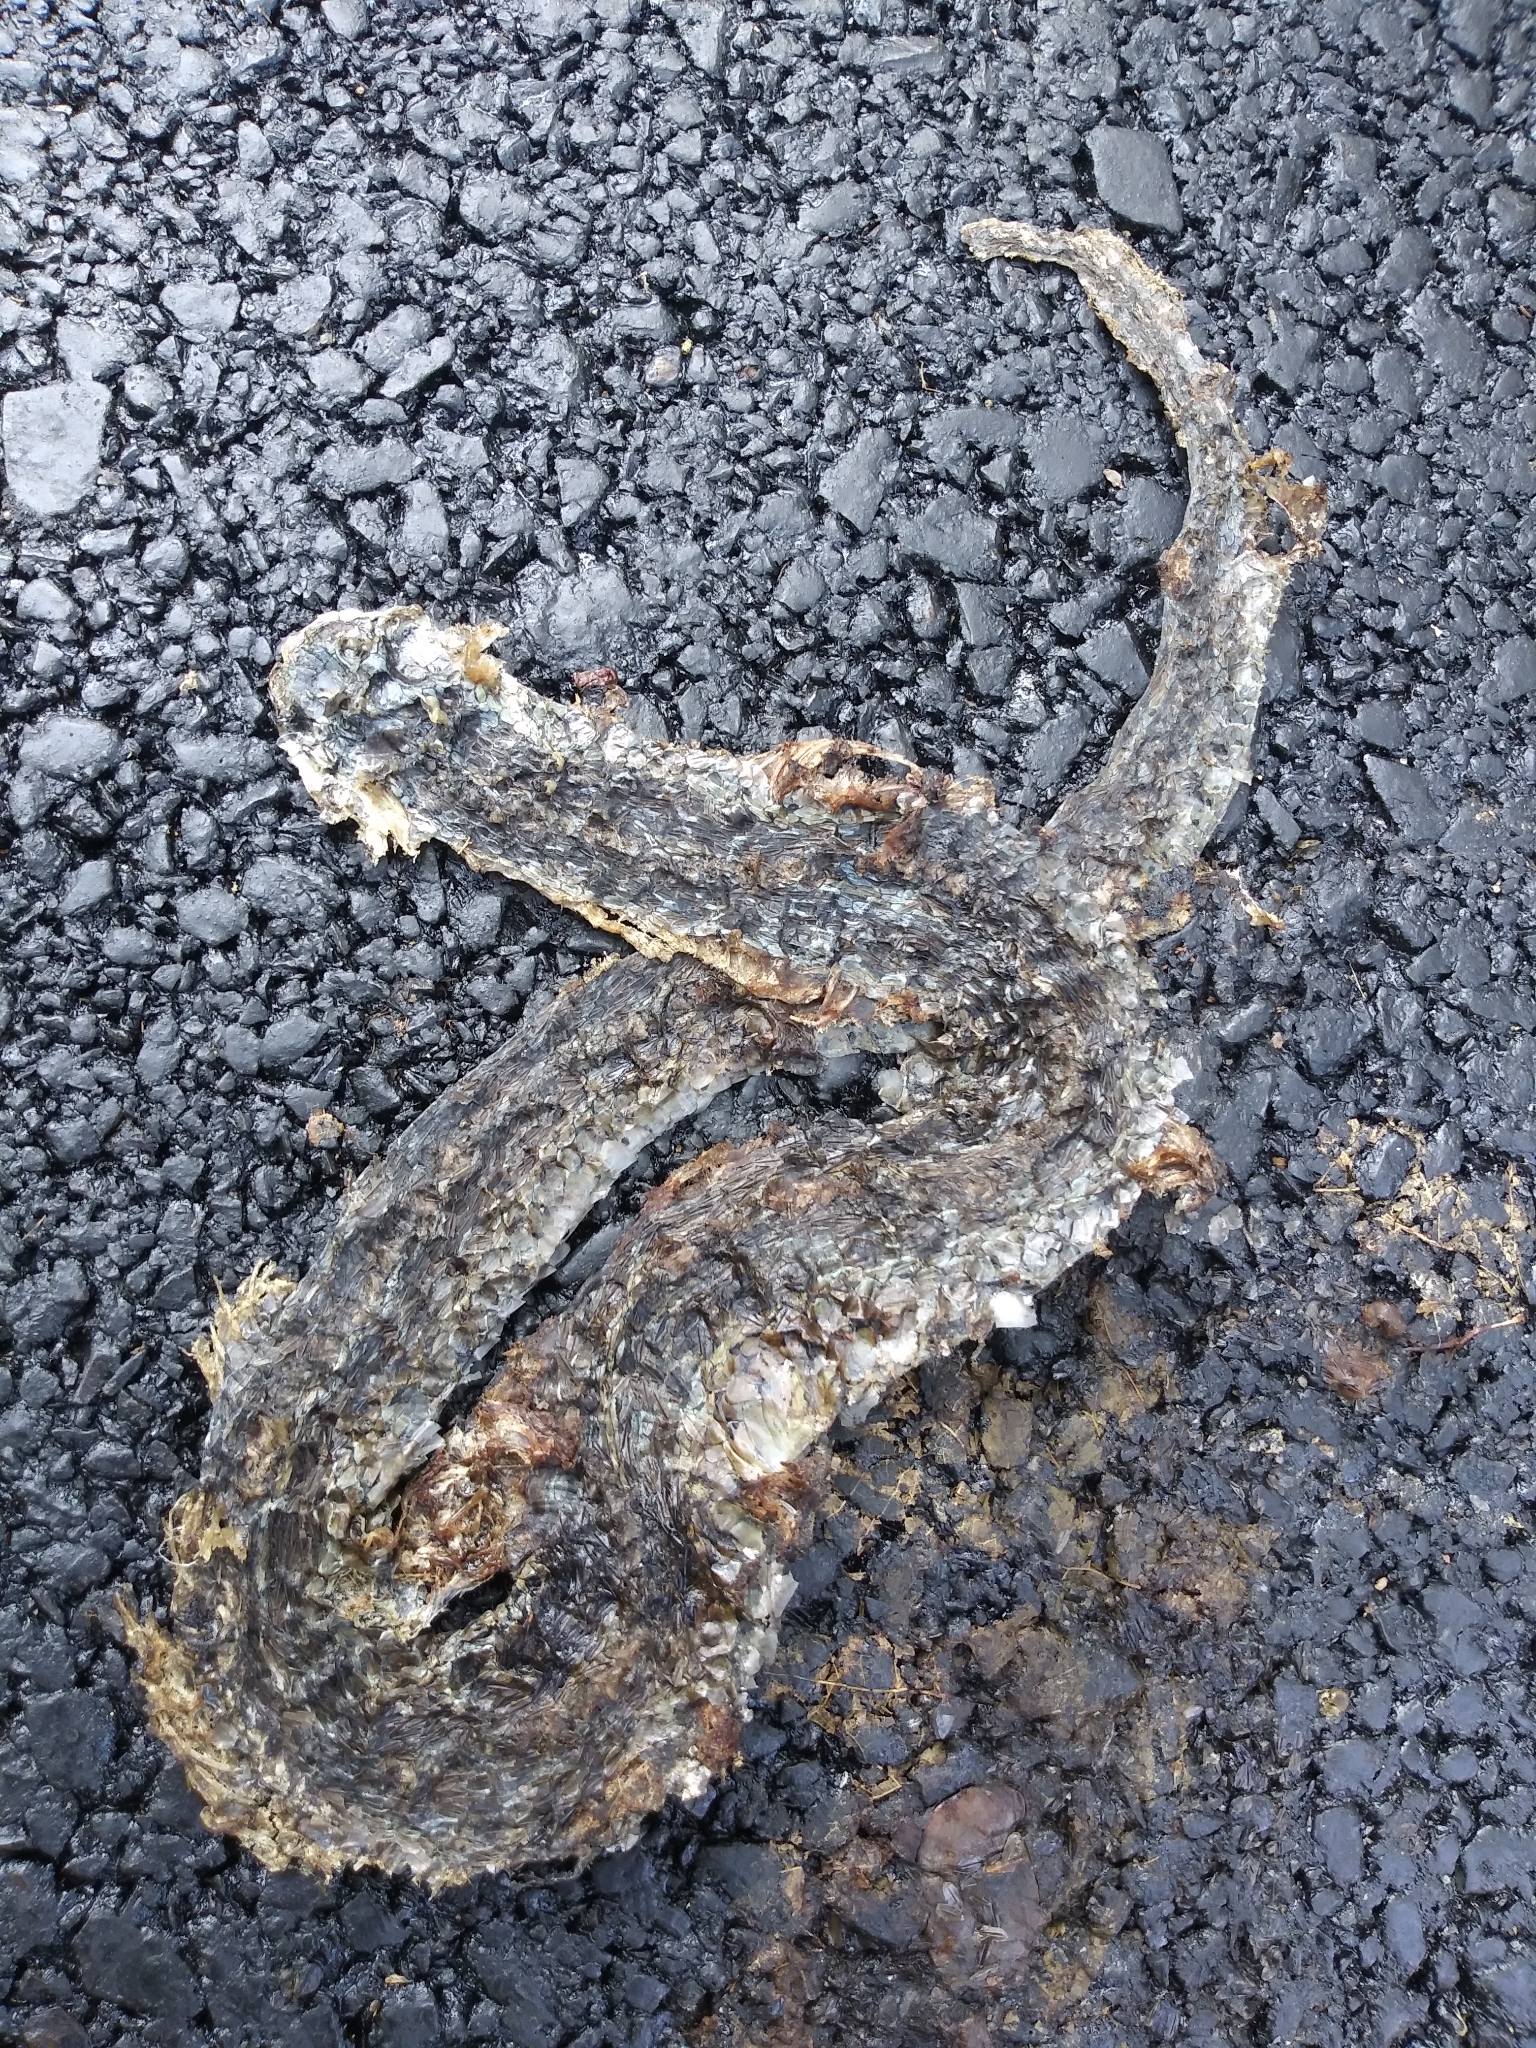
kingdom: Animalia
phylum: Chordata
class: Squamata
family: Colubridae
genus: Thamnophis
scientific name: Thamnophis sirtalis
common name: Common garter snake
